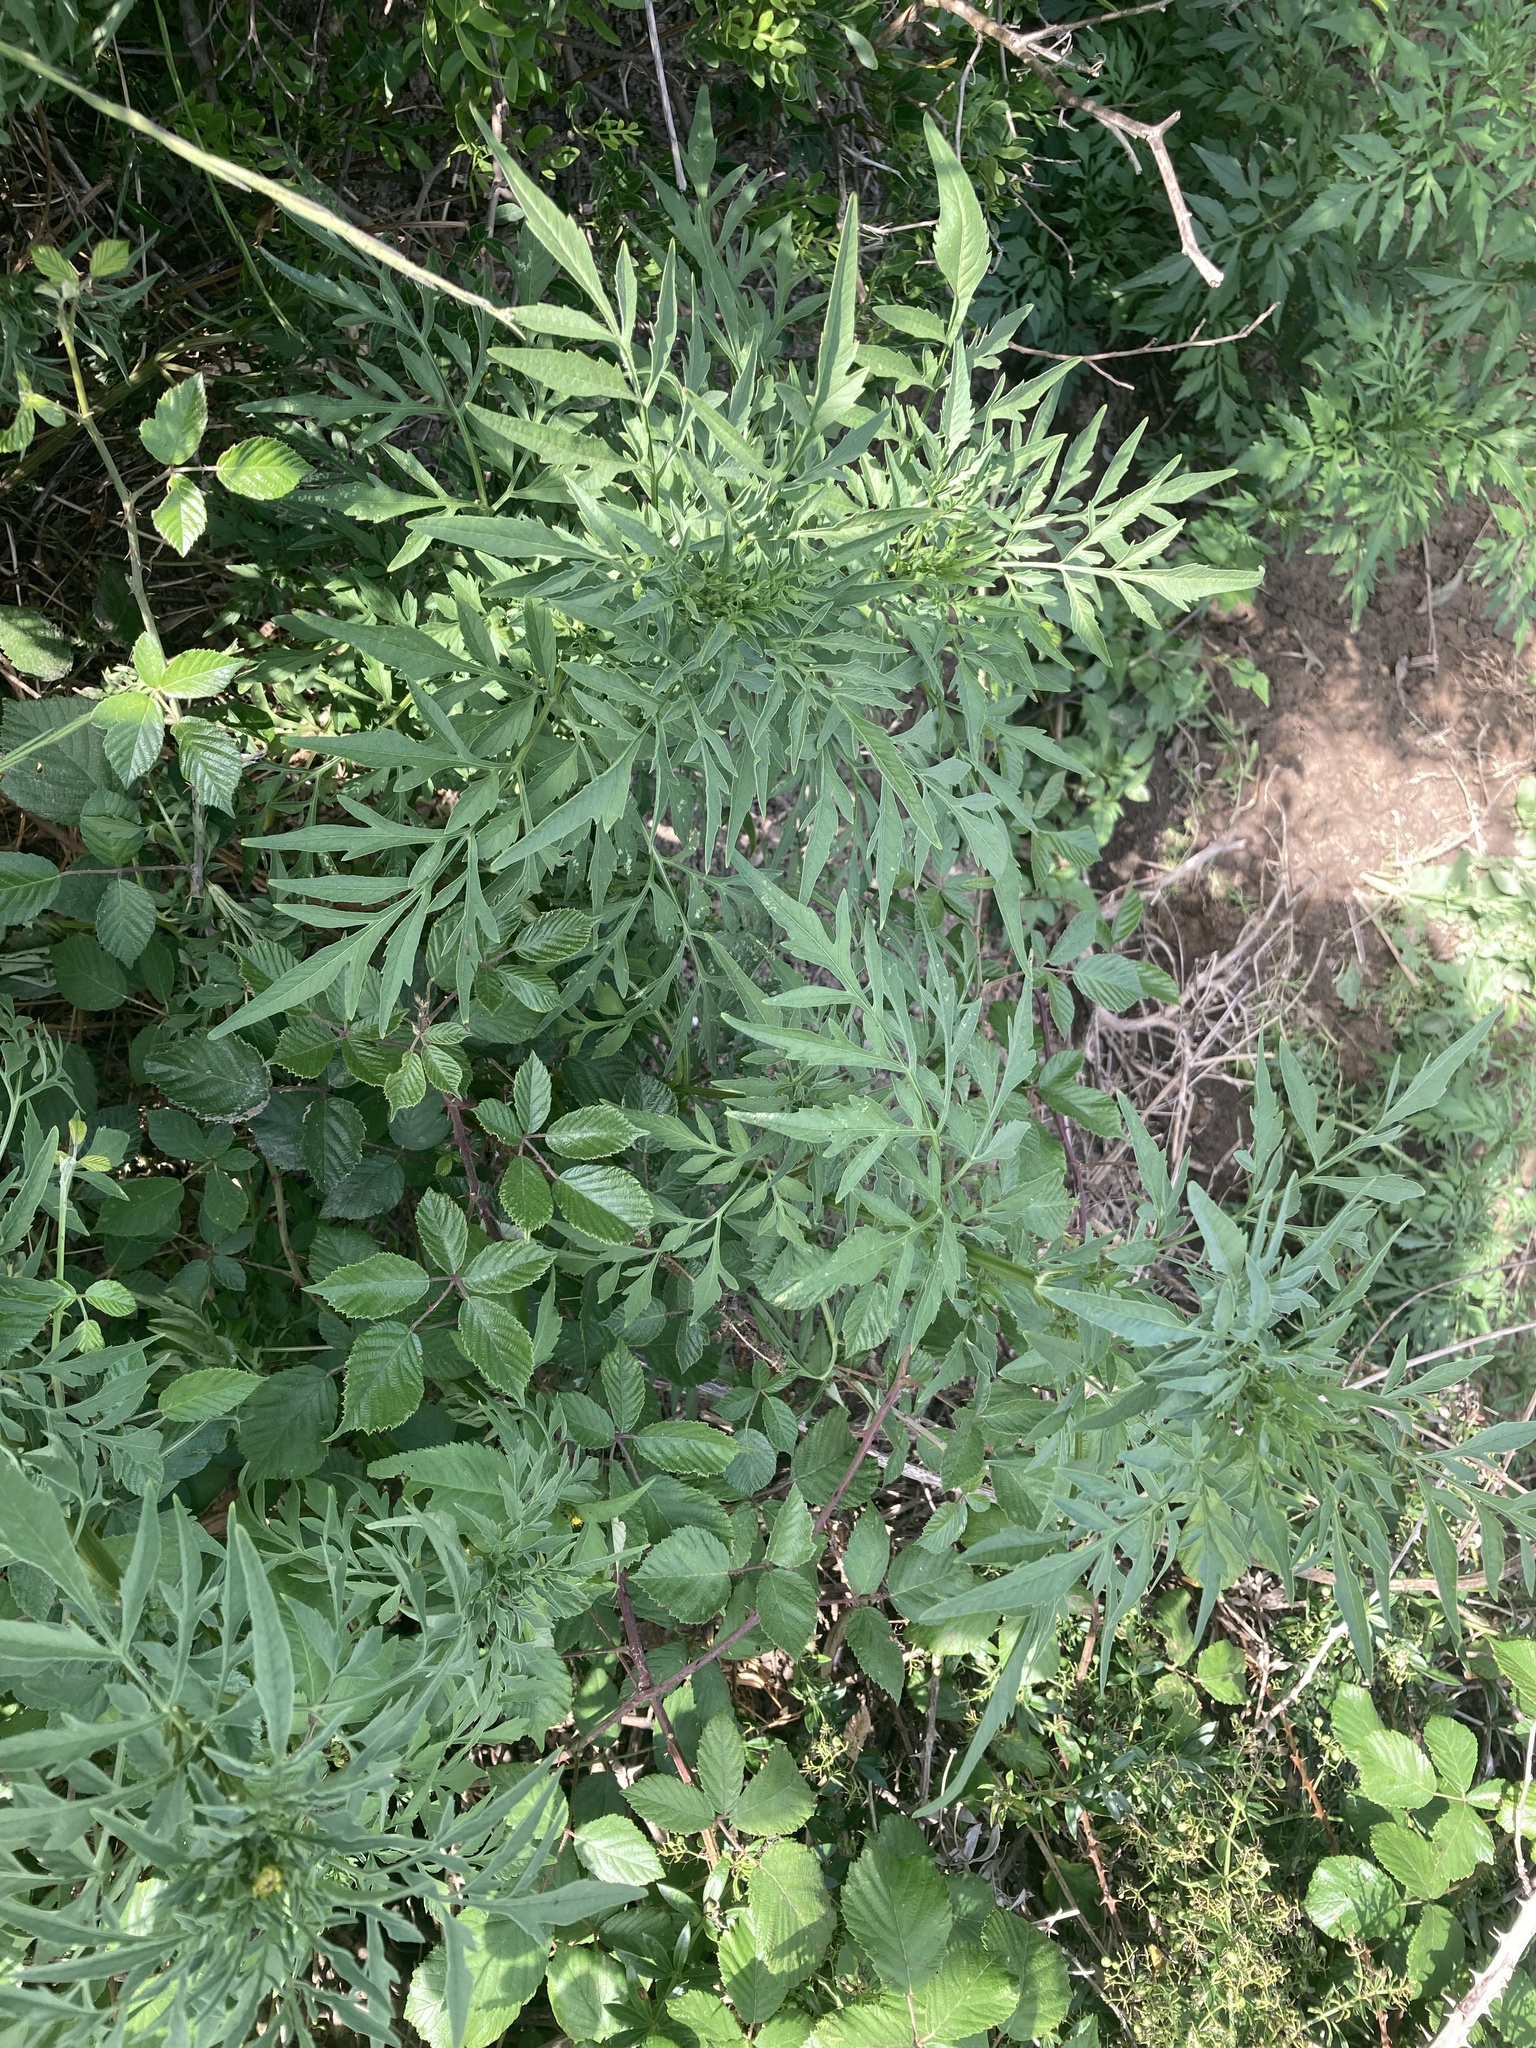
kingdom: Plantae
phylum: Tracheophyta
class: Magnoliopsida
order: Asterales
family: Asteraceae
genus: Bidens
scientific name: Bidens subalternans
